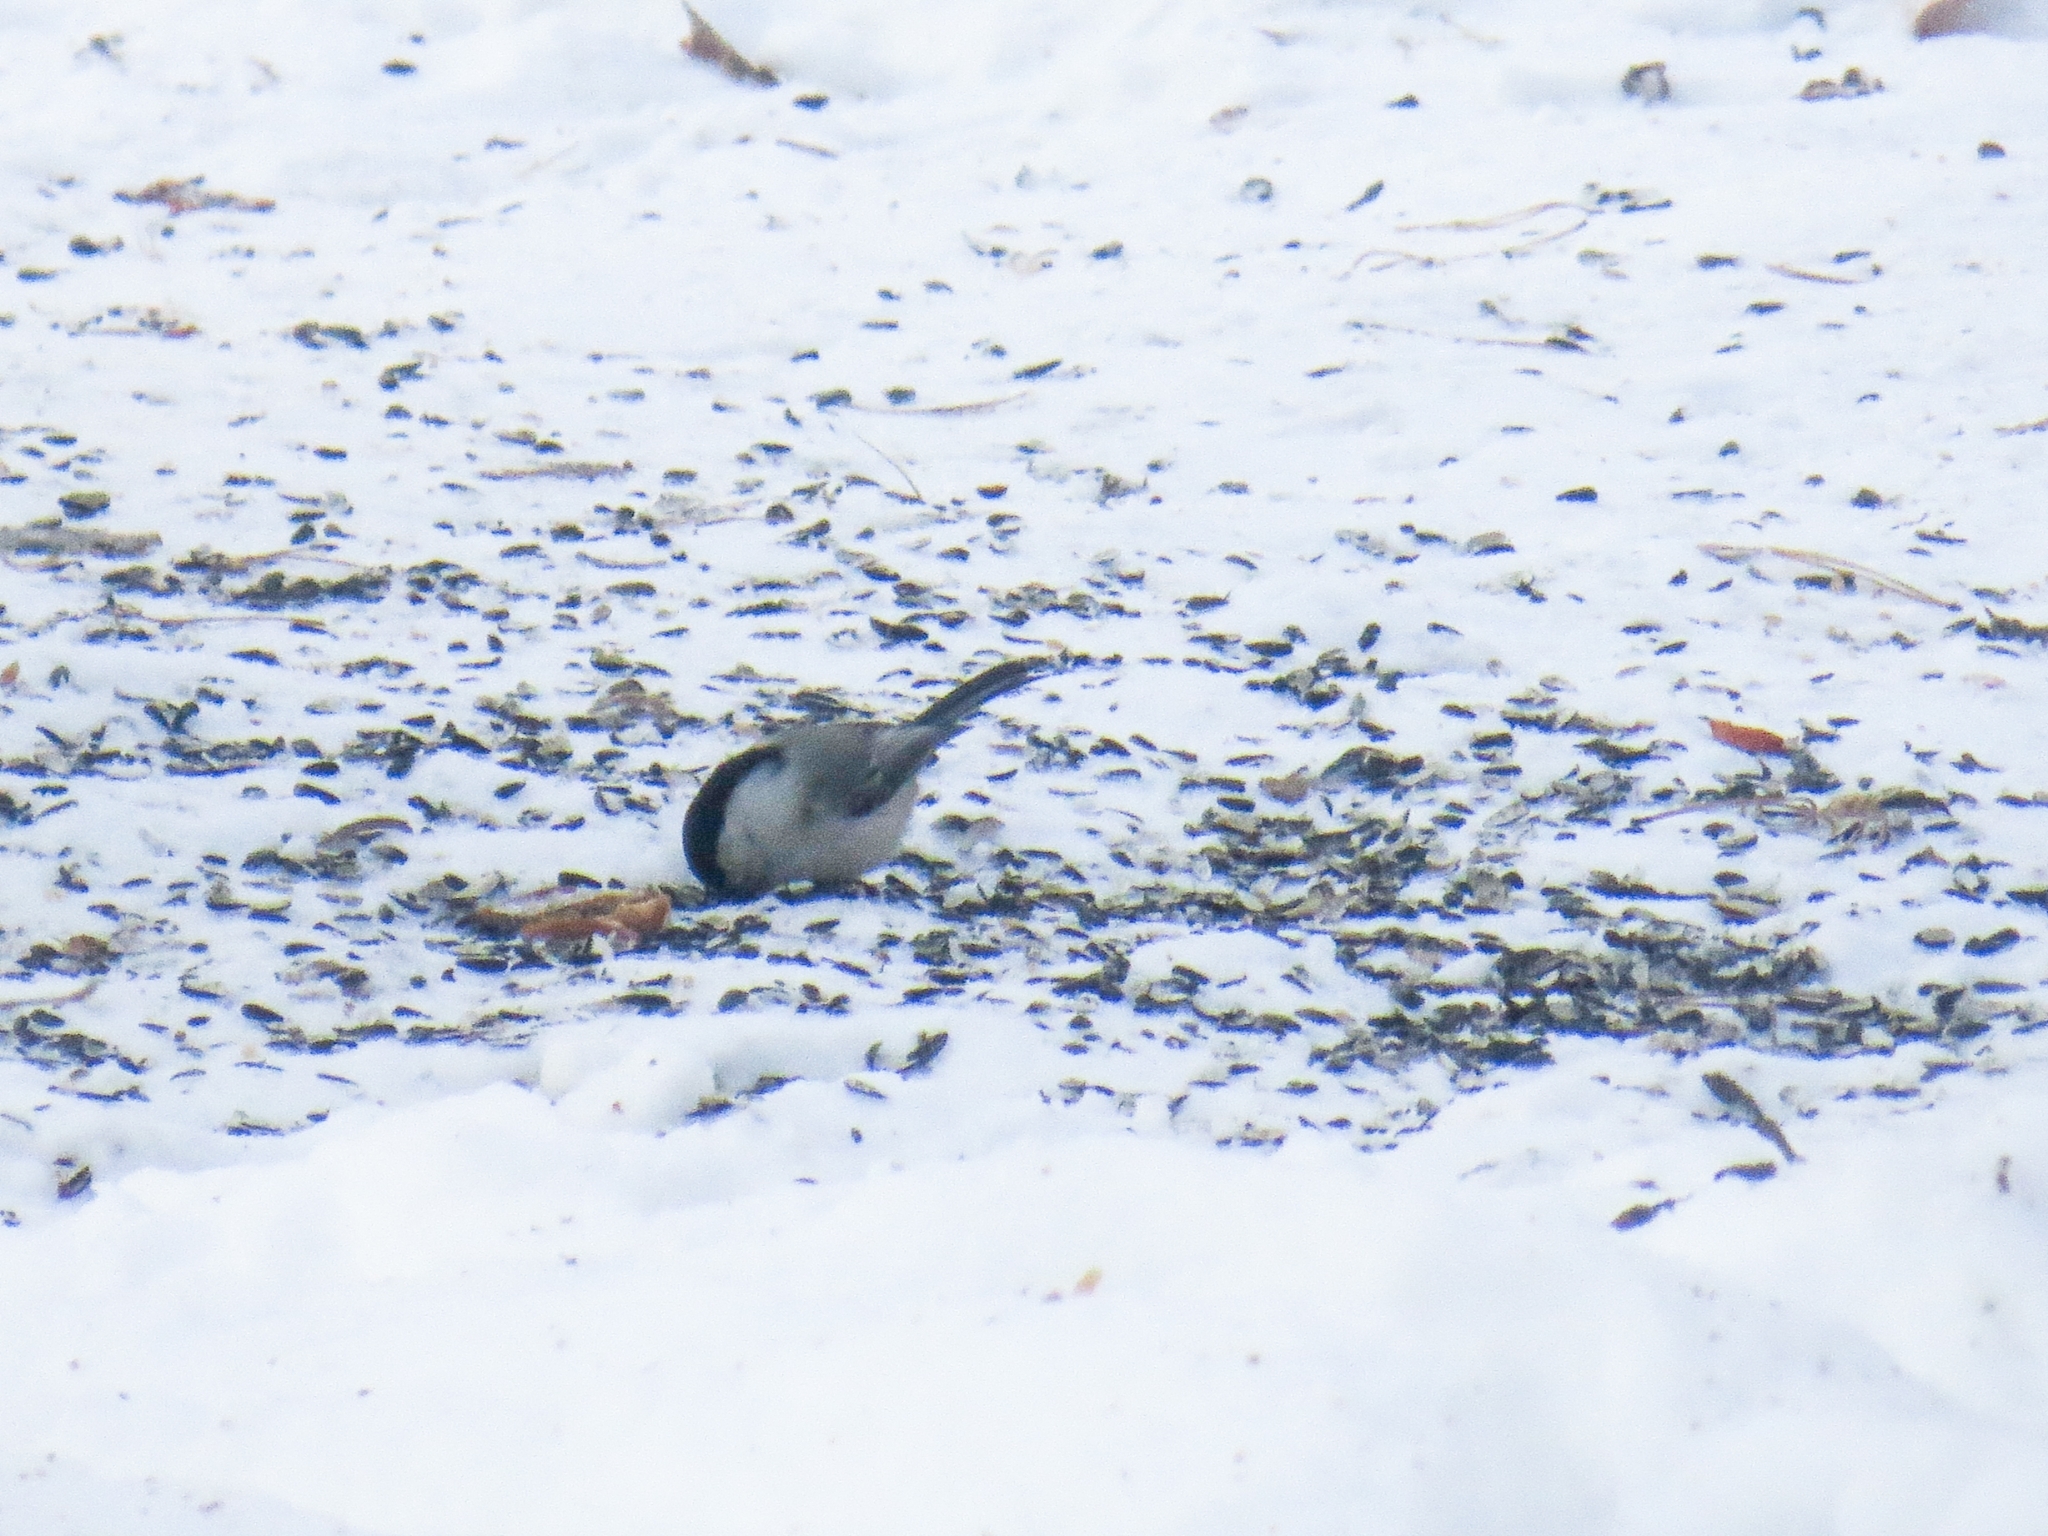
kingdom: Animalia
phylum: Chordata
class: Aves
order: Passeriformes
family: Paridae
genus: Poecile
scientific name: Poecile montanus
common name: Willow tit
